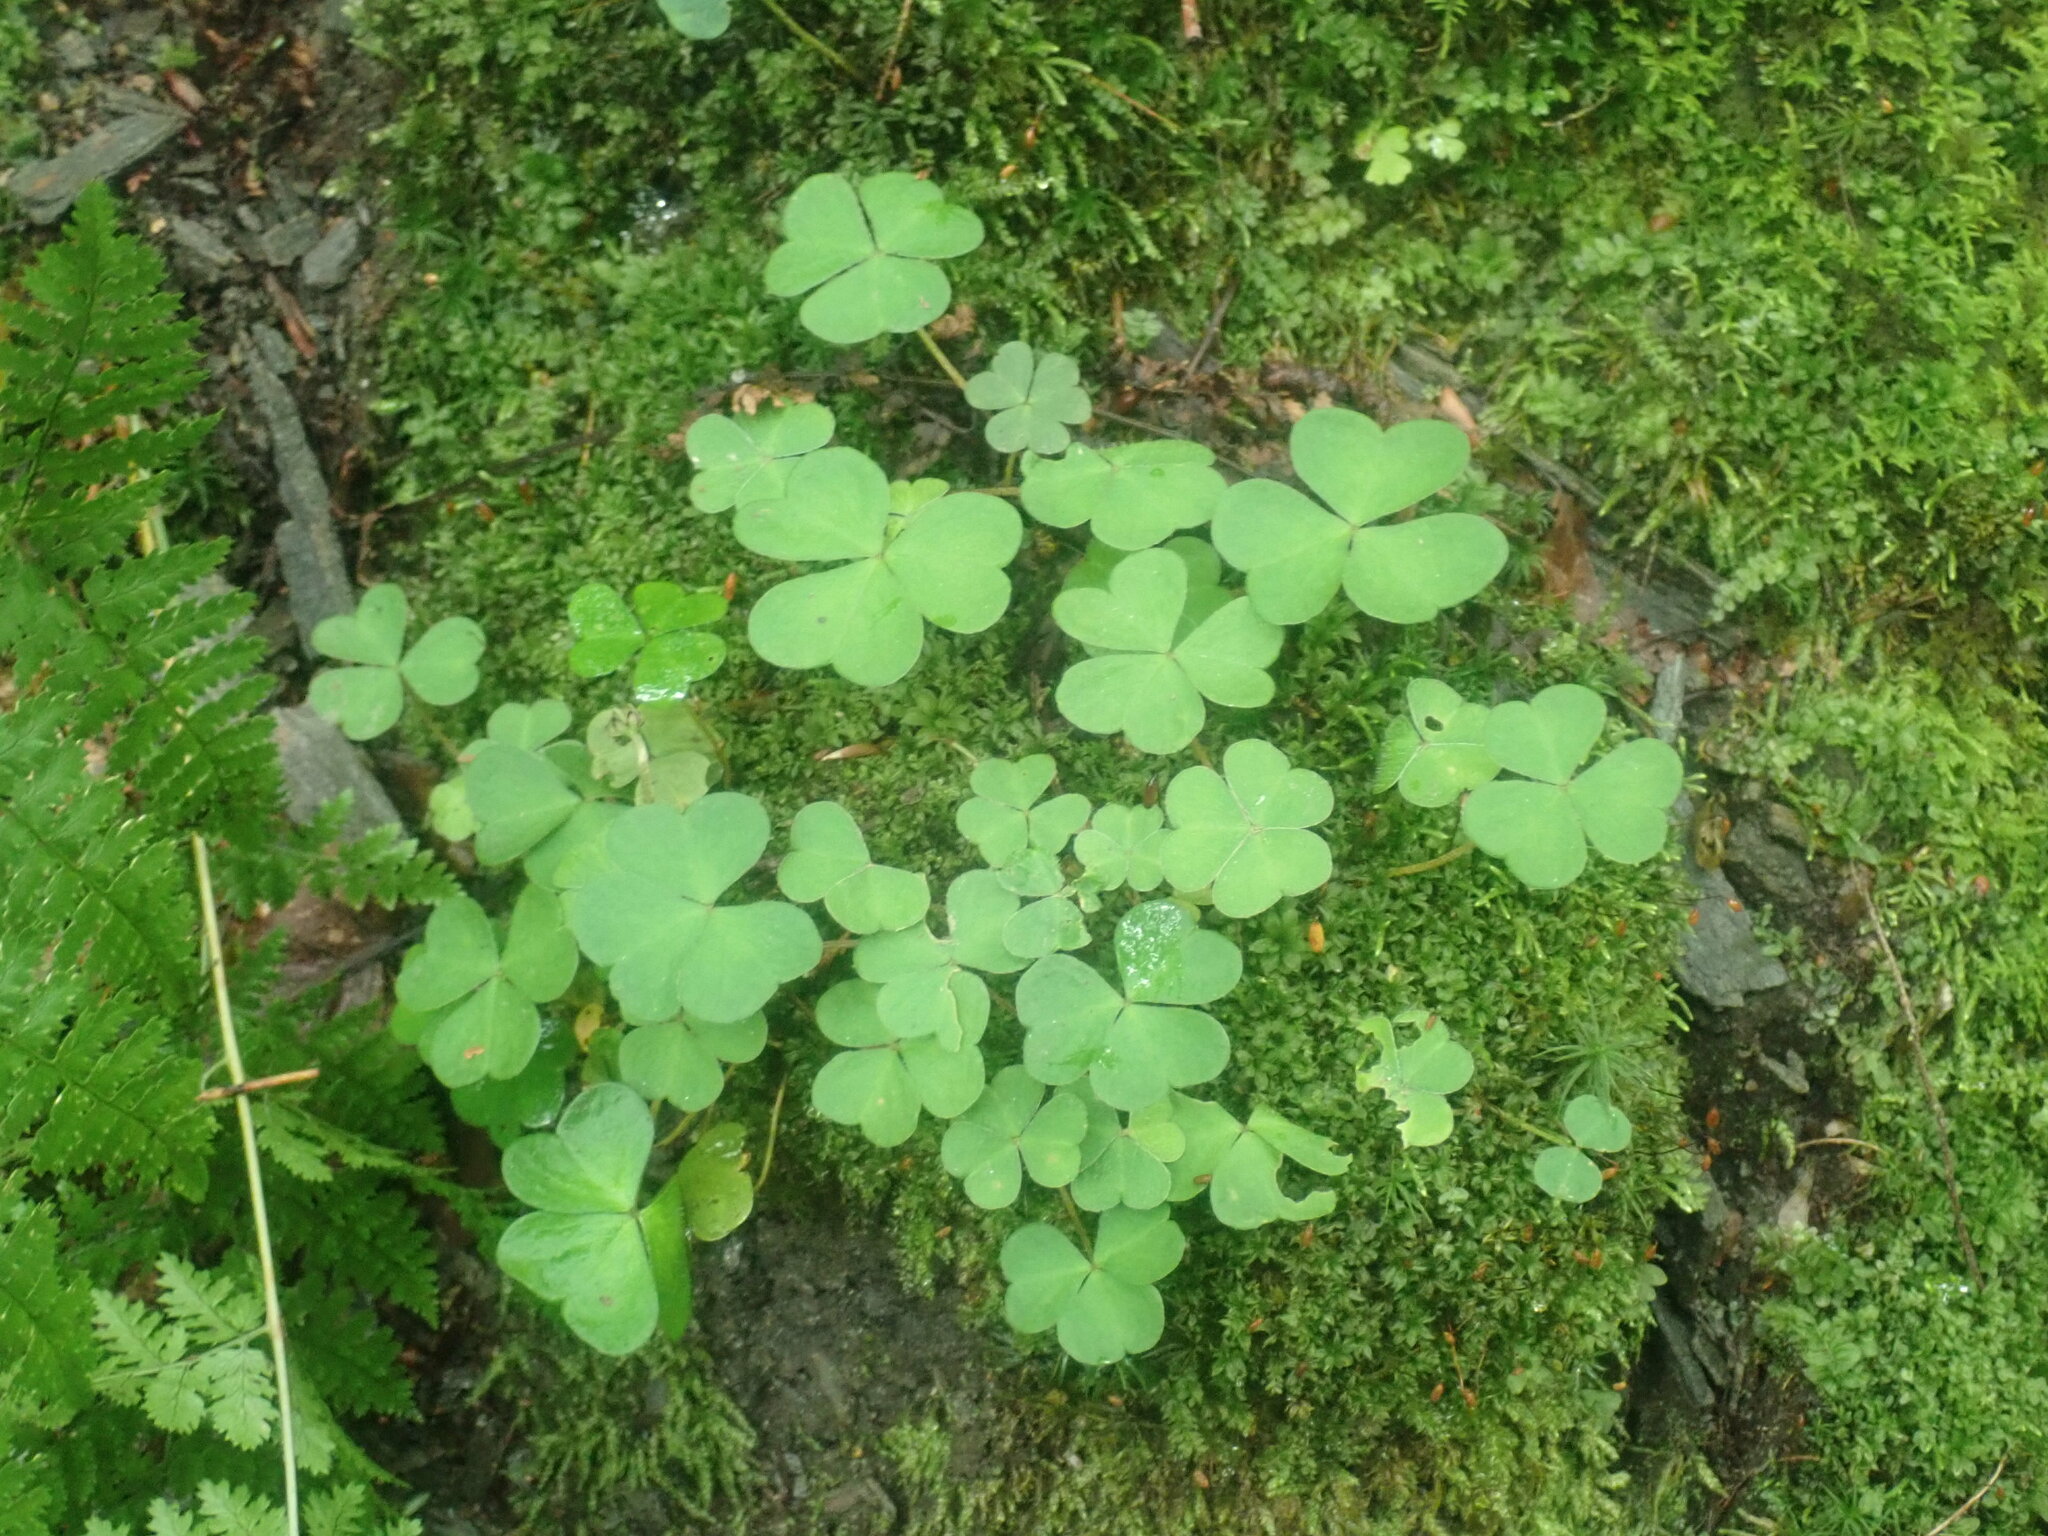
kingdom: Plantae
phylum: Tracheophyta
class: Magnoliopsida
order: Oxalidales
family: Oxalidaceae
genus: Oxalis
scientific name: Oxalis montana
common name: American wood-sorrel
